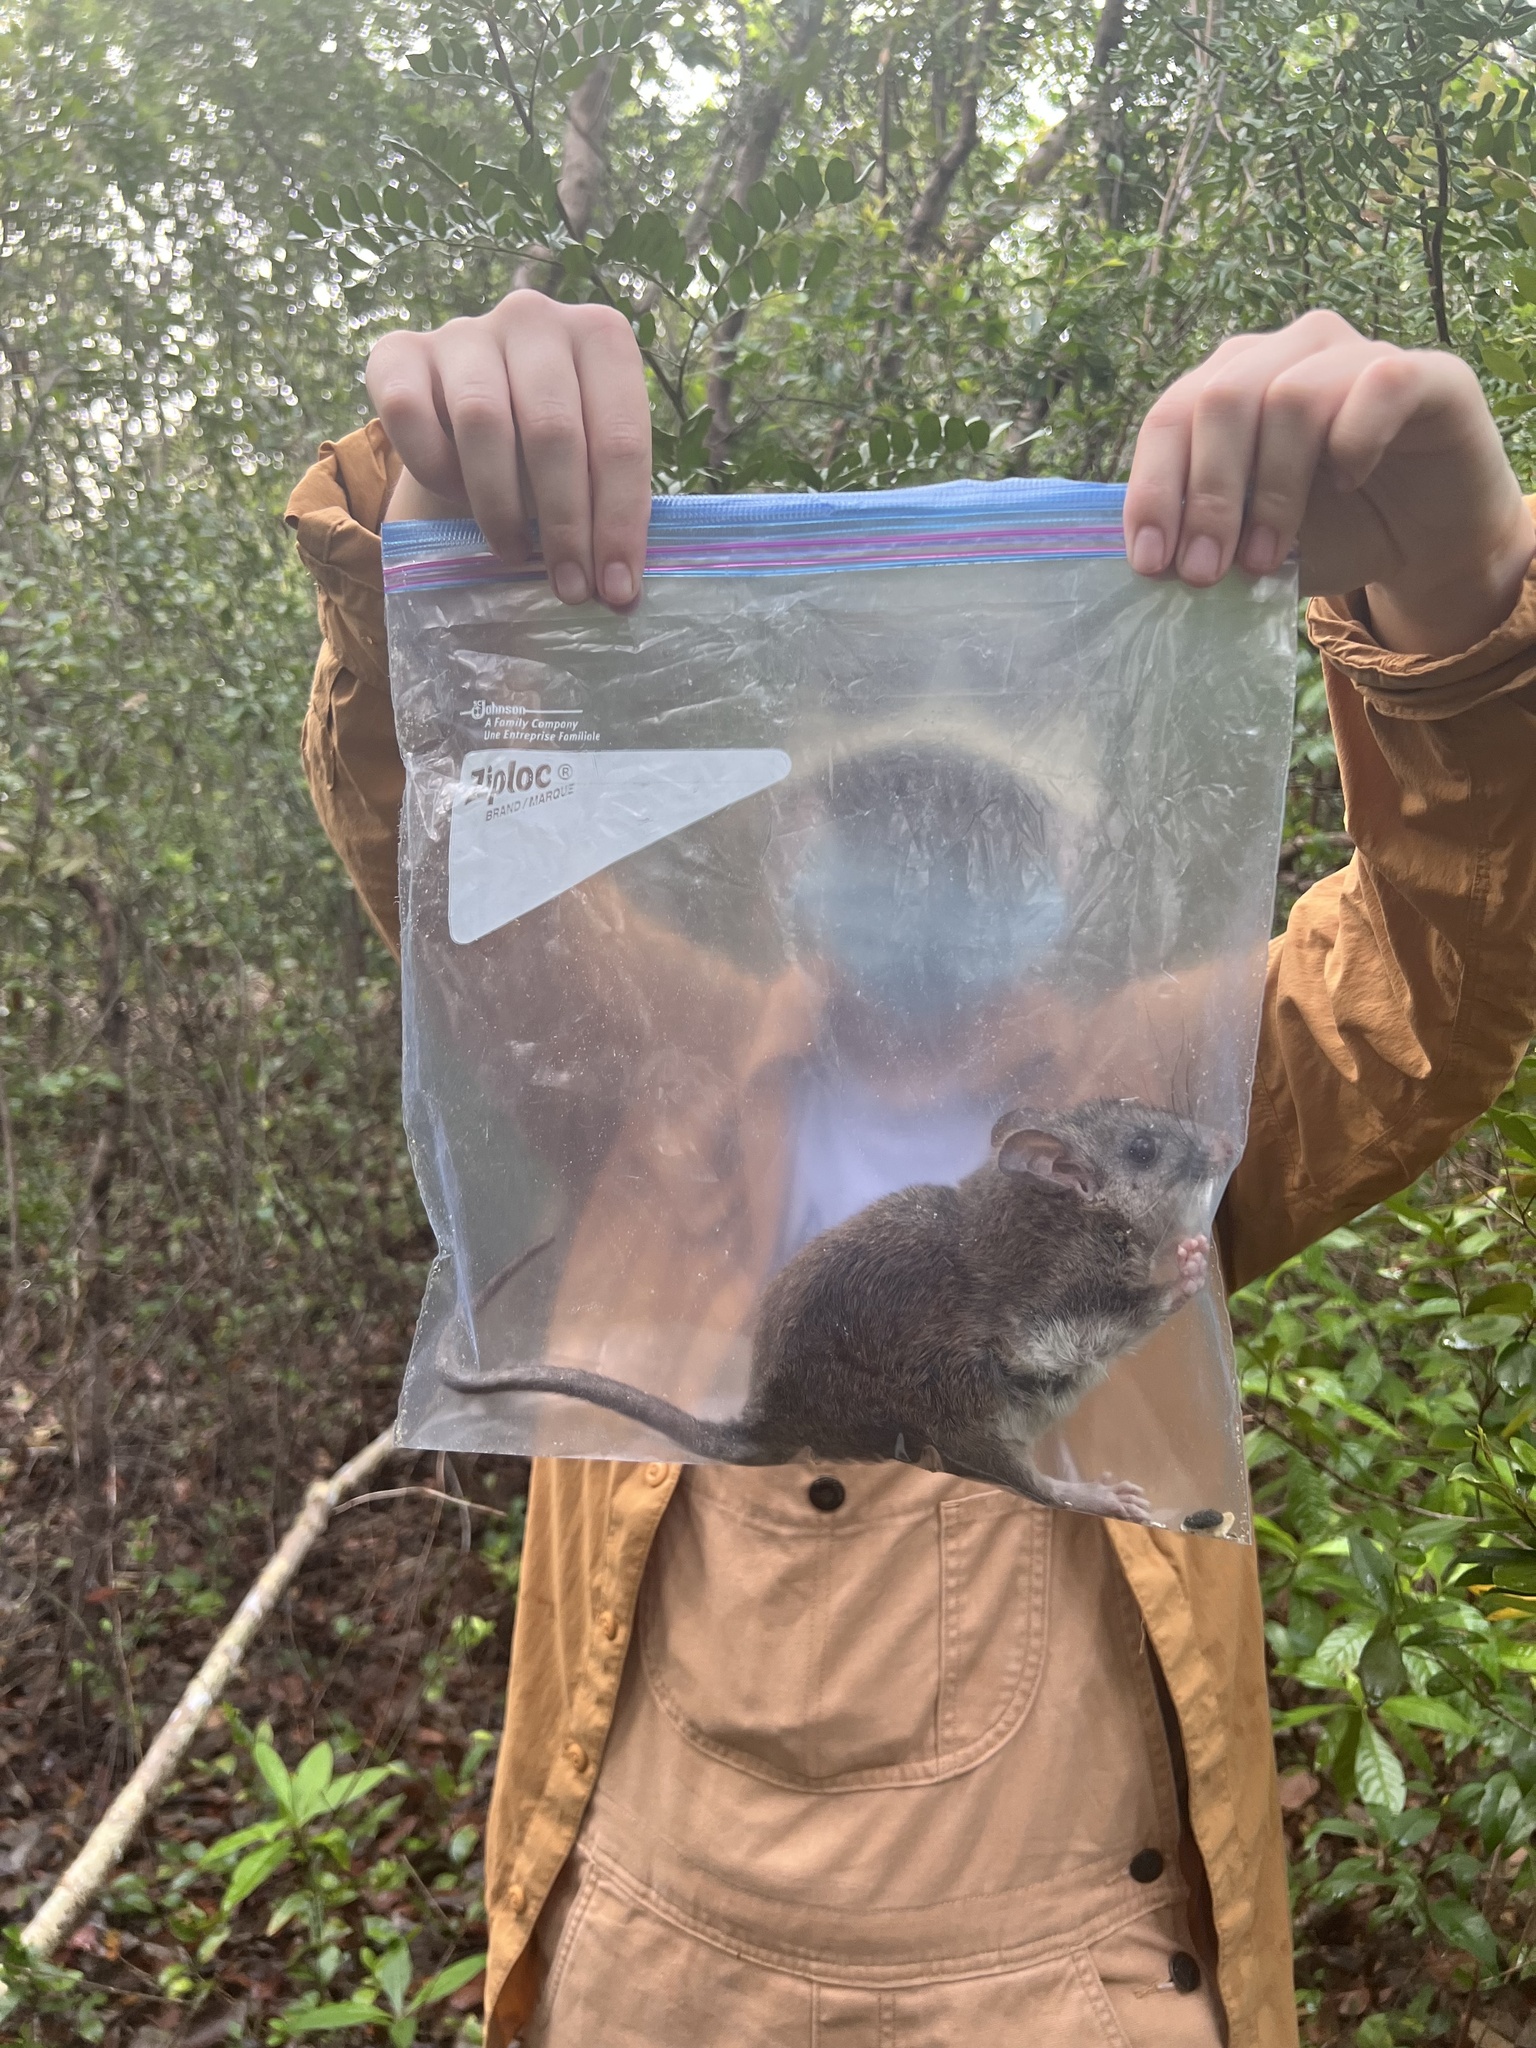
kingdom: Animalia
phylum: Chordata
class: Mammalia
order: Rodentia
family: Cricetidae
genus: Neotoma
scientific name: Neotoma floridana
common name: Eastern woodrat
